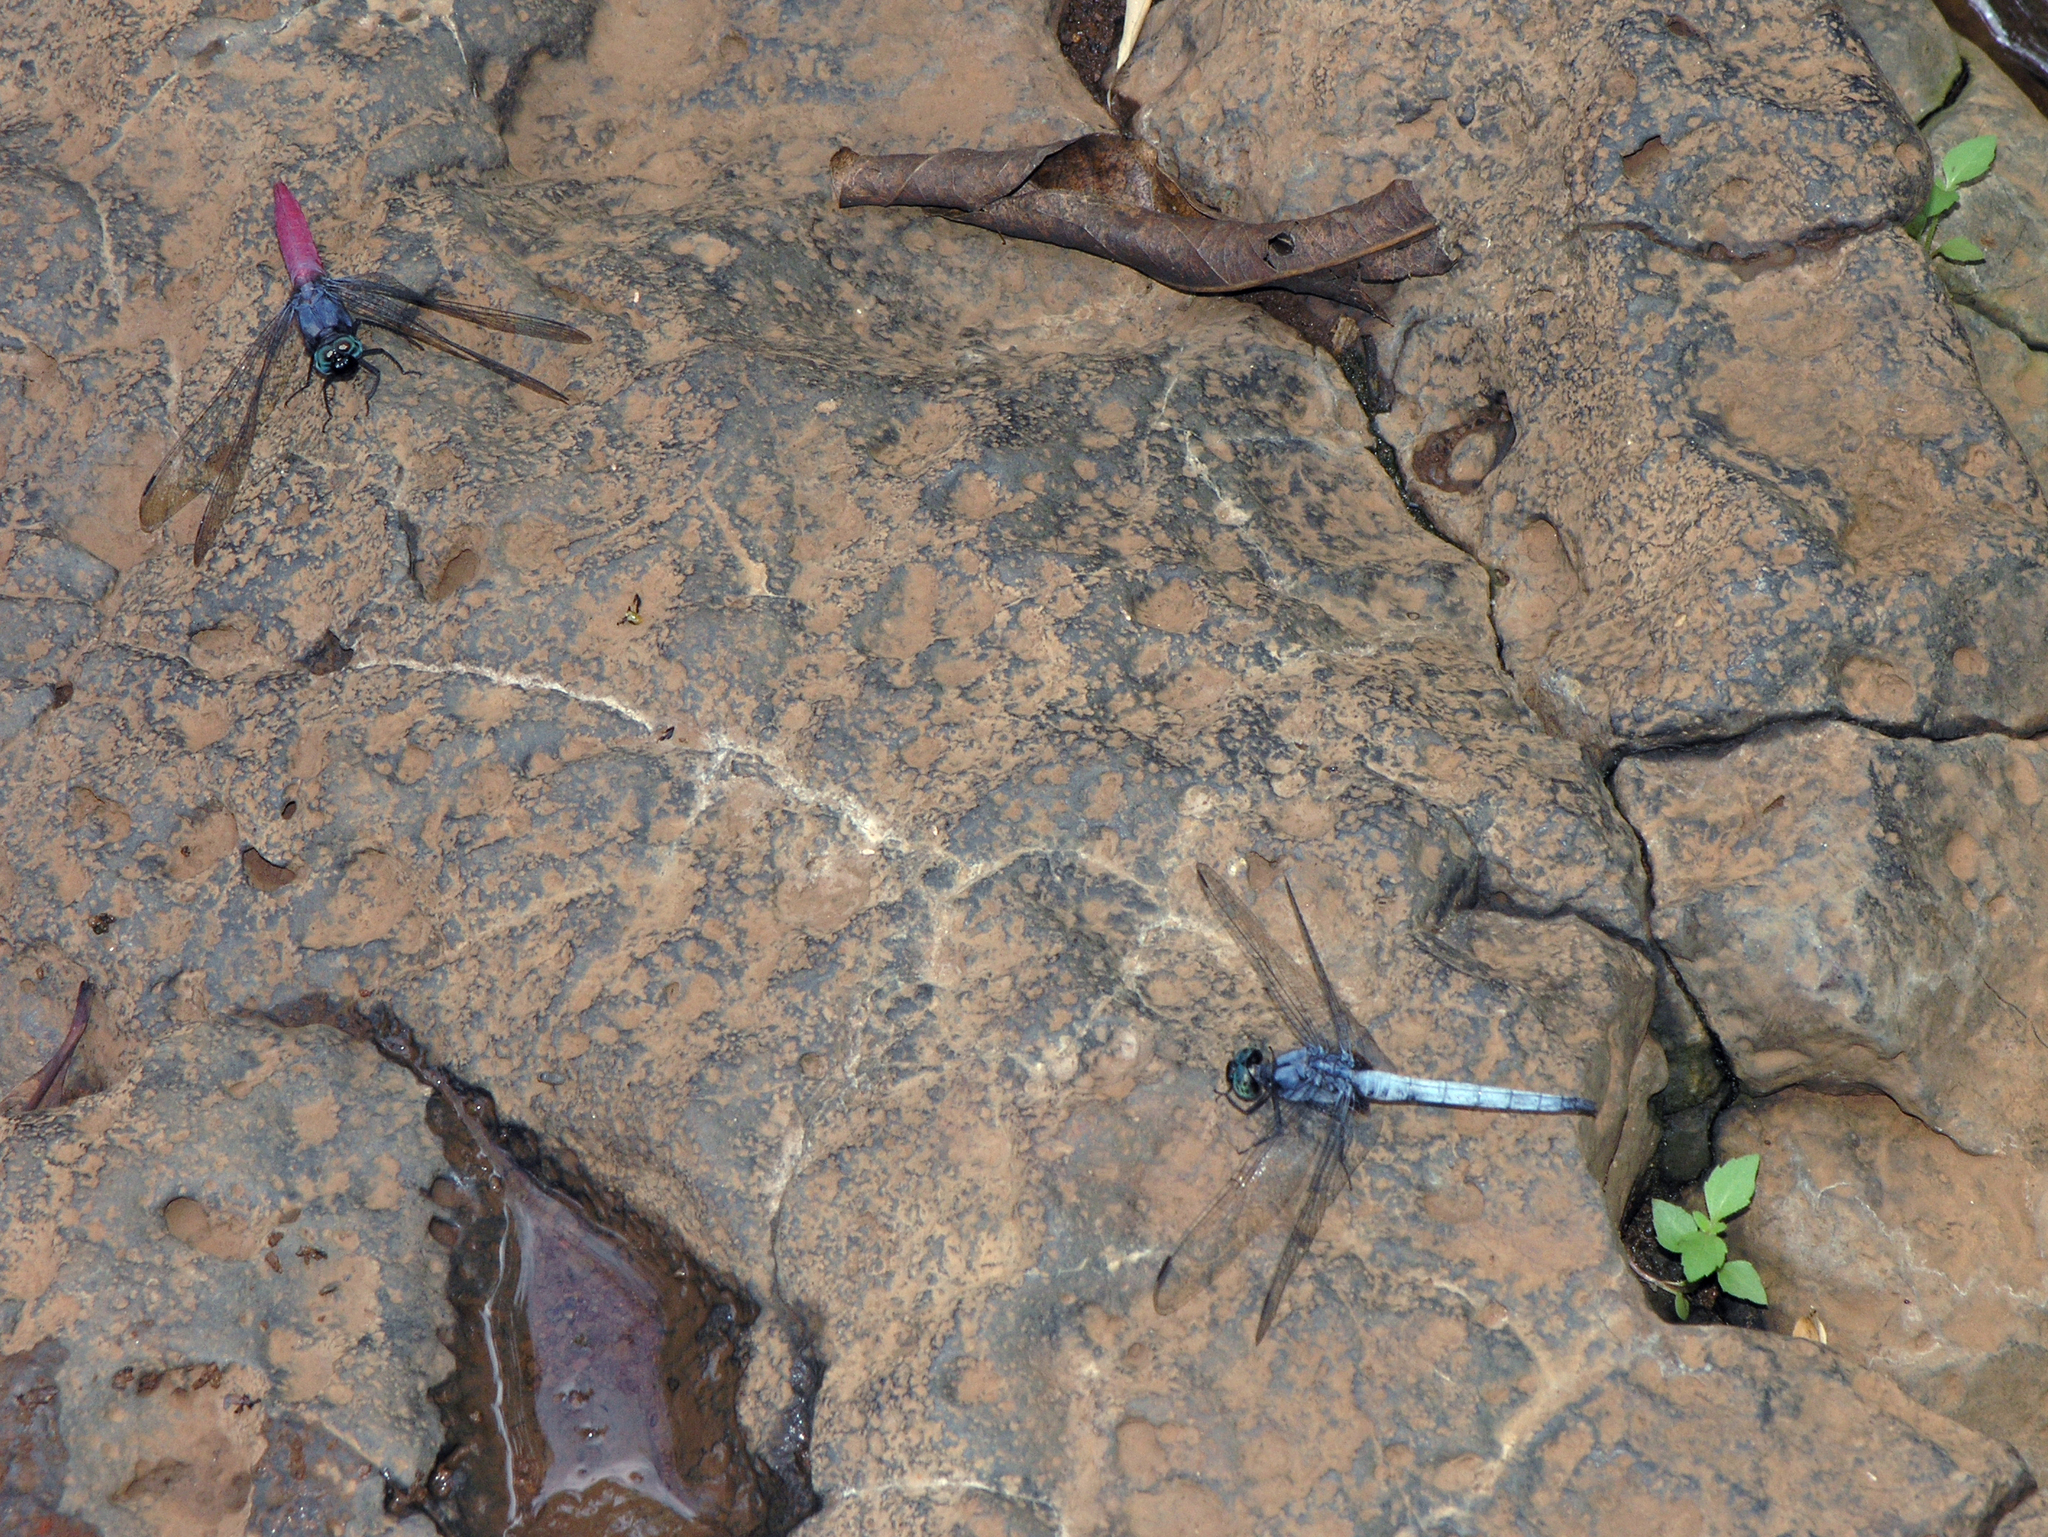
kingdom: Animalia
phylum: Arthropoda
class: Insecta
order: Odonata
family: Libellulidae
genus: Orthetrum
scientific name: Orthetrum pruinosum
